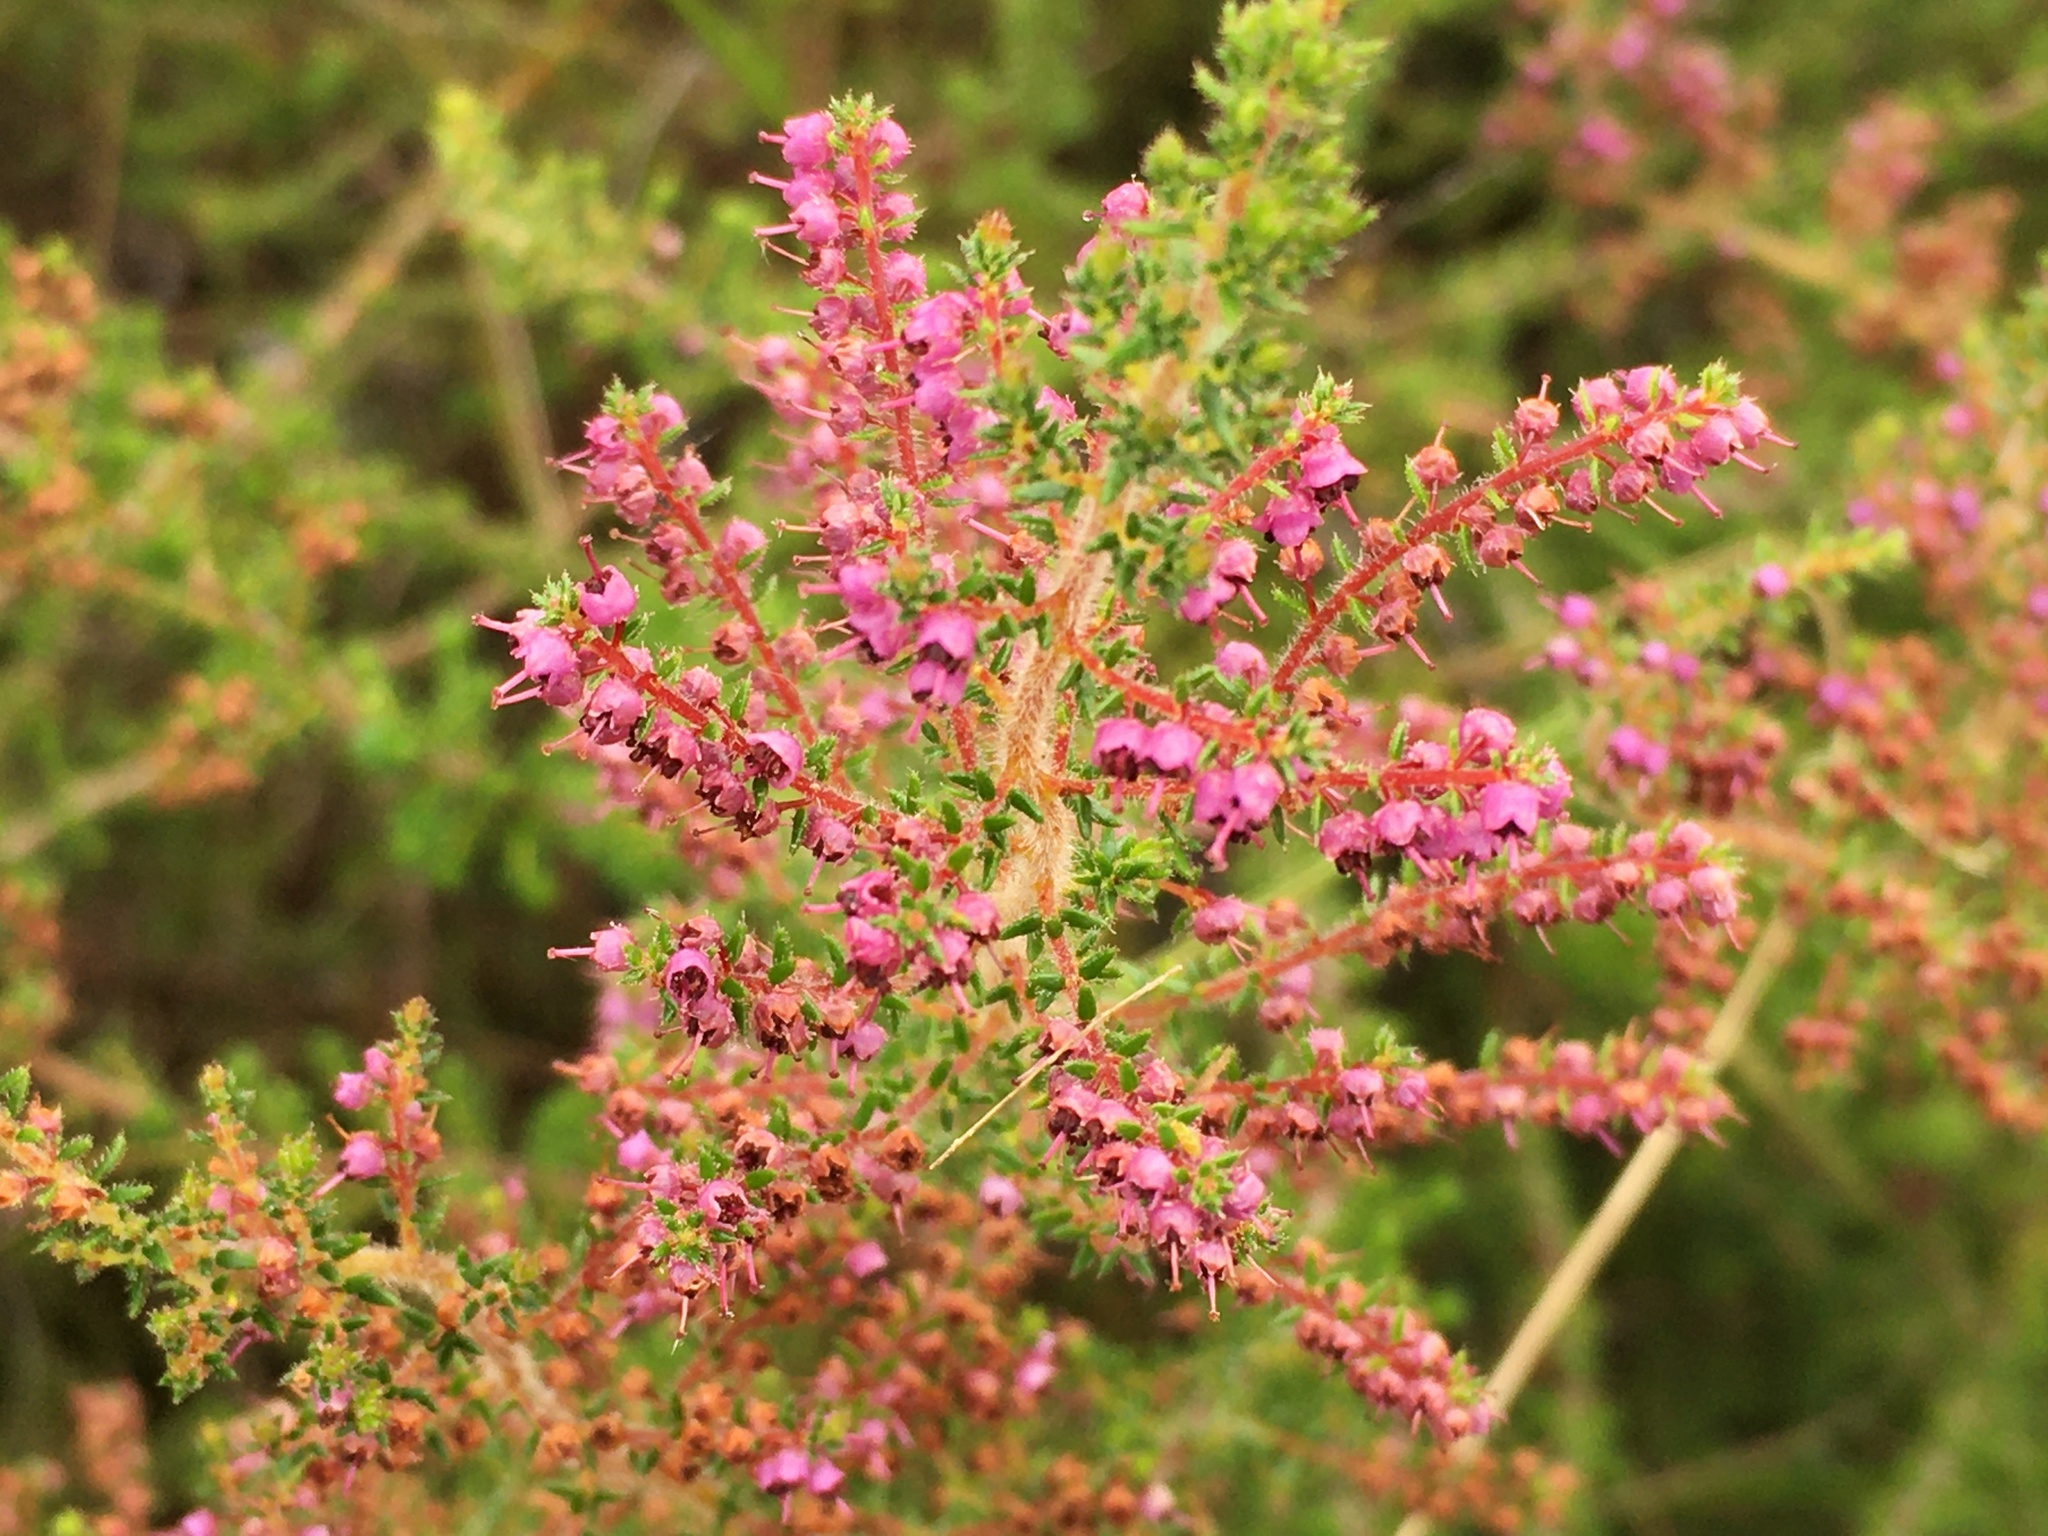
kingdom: Plantae
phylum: Tracheophyta
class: Magnoliopsida
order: Ericales
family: Ericaceae
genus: Erica
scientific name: Erica woodii
